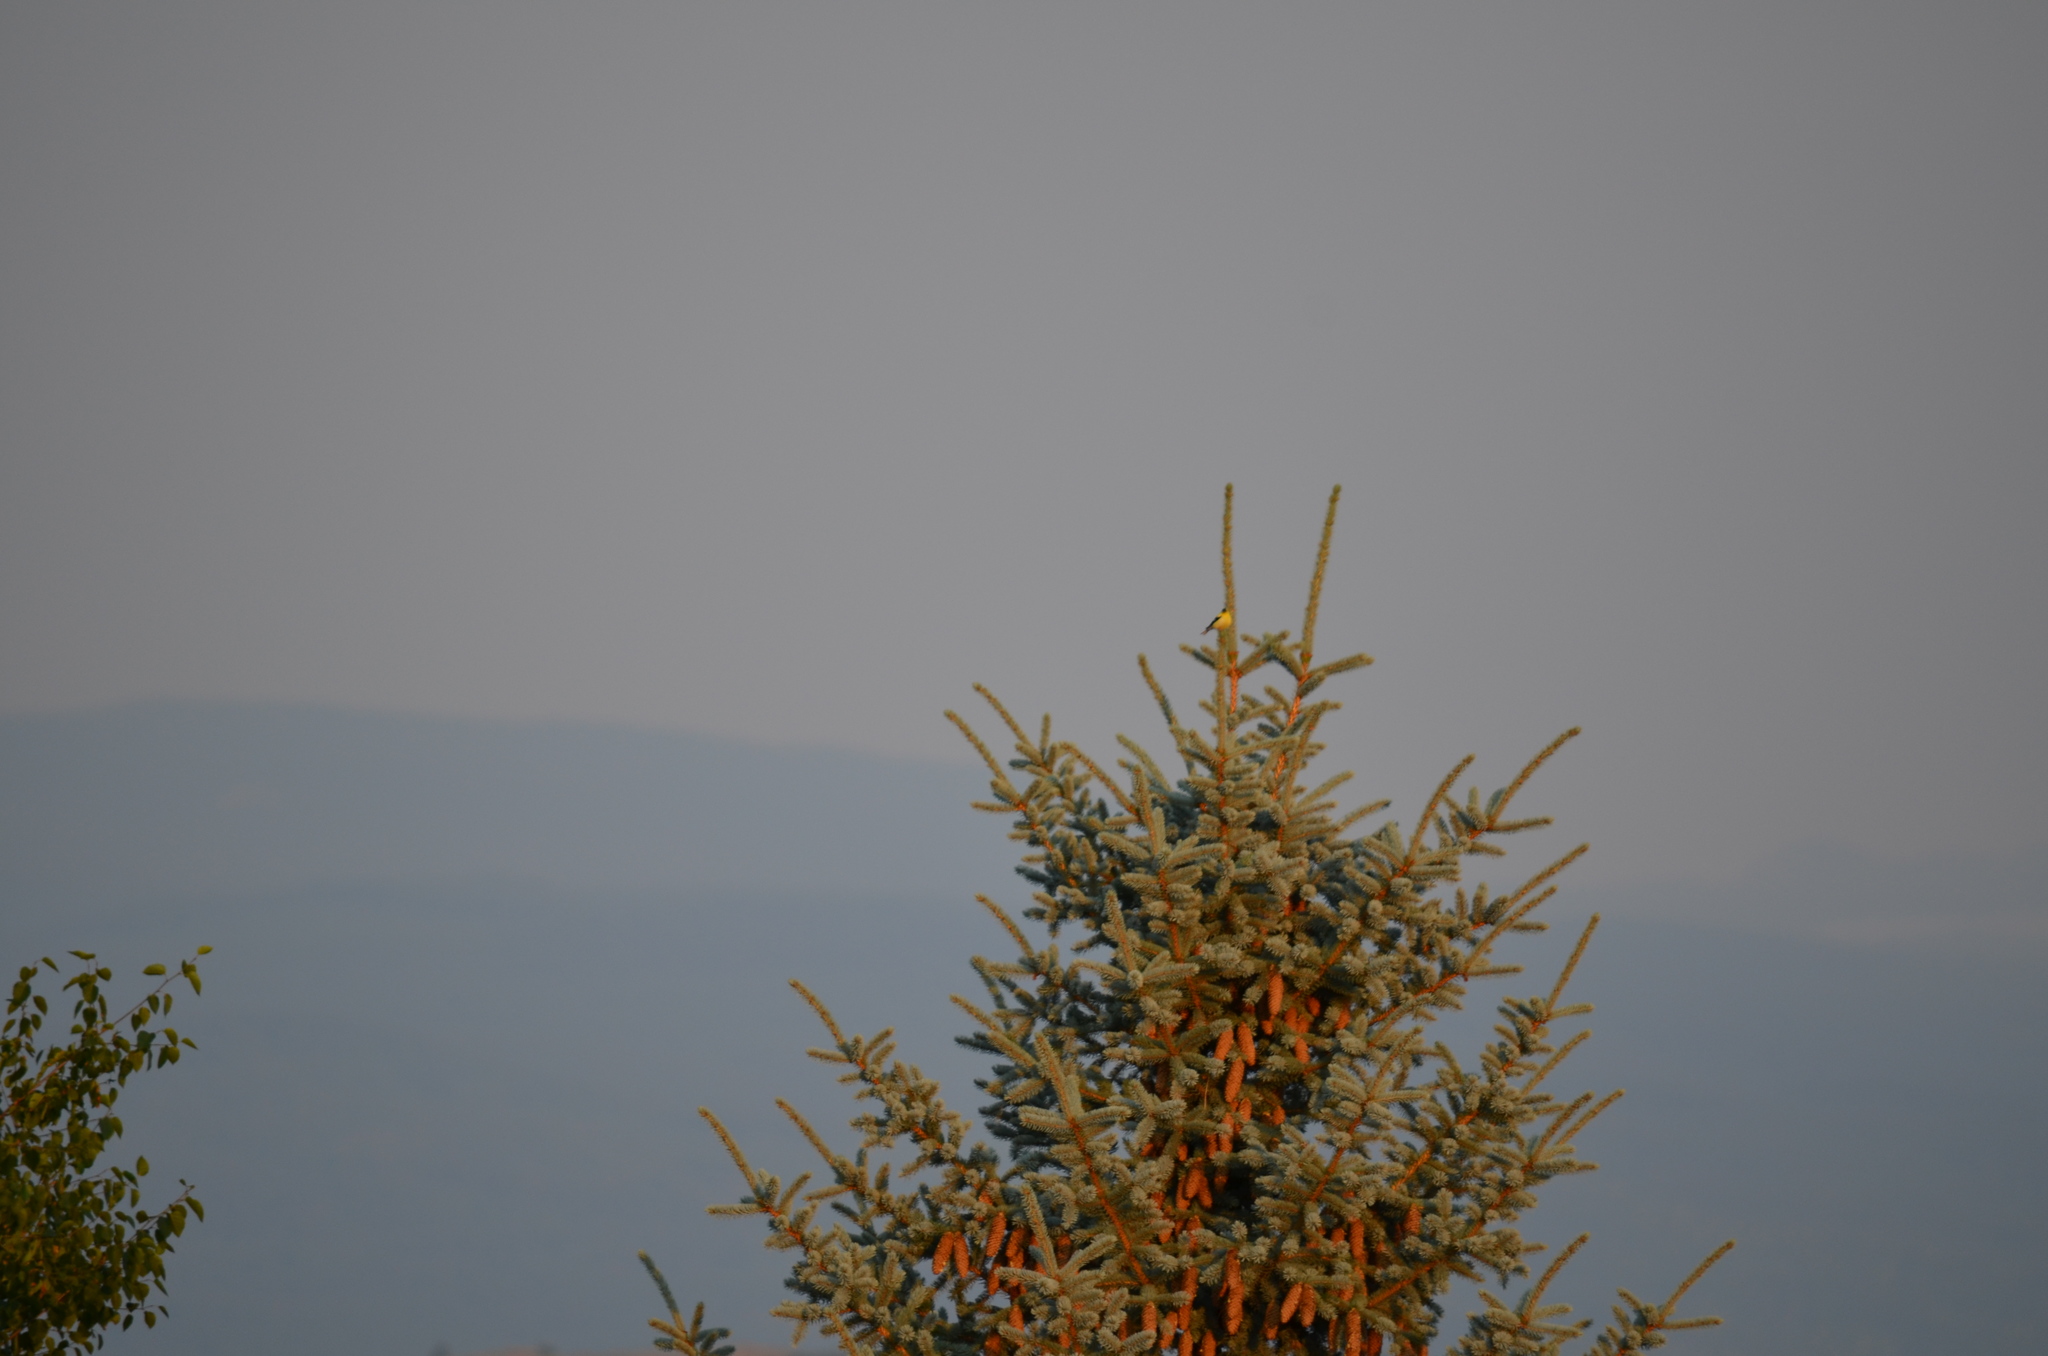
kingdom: Animalia
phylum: Chordata
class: Aves
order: Passeriformes
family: Fringillidae
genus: Spinus
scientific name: Spinus tristis
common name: American goldfinch
